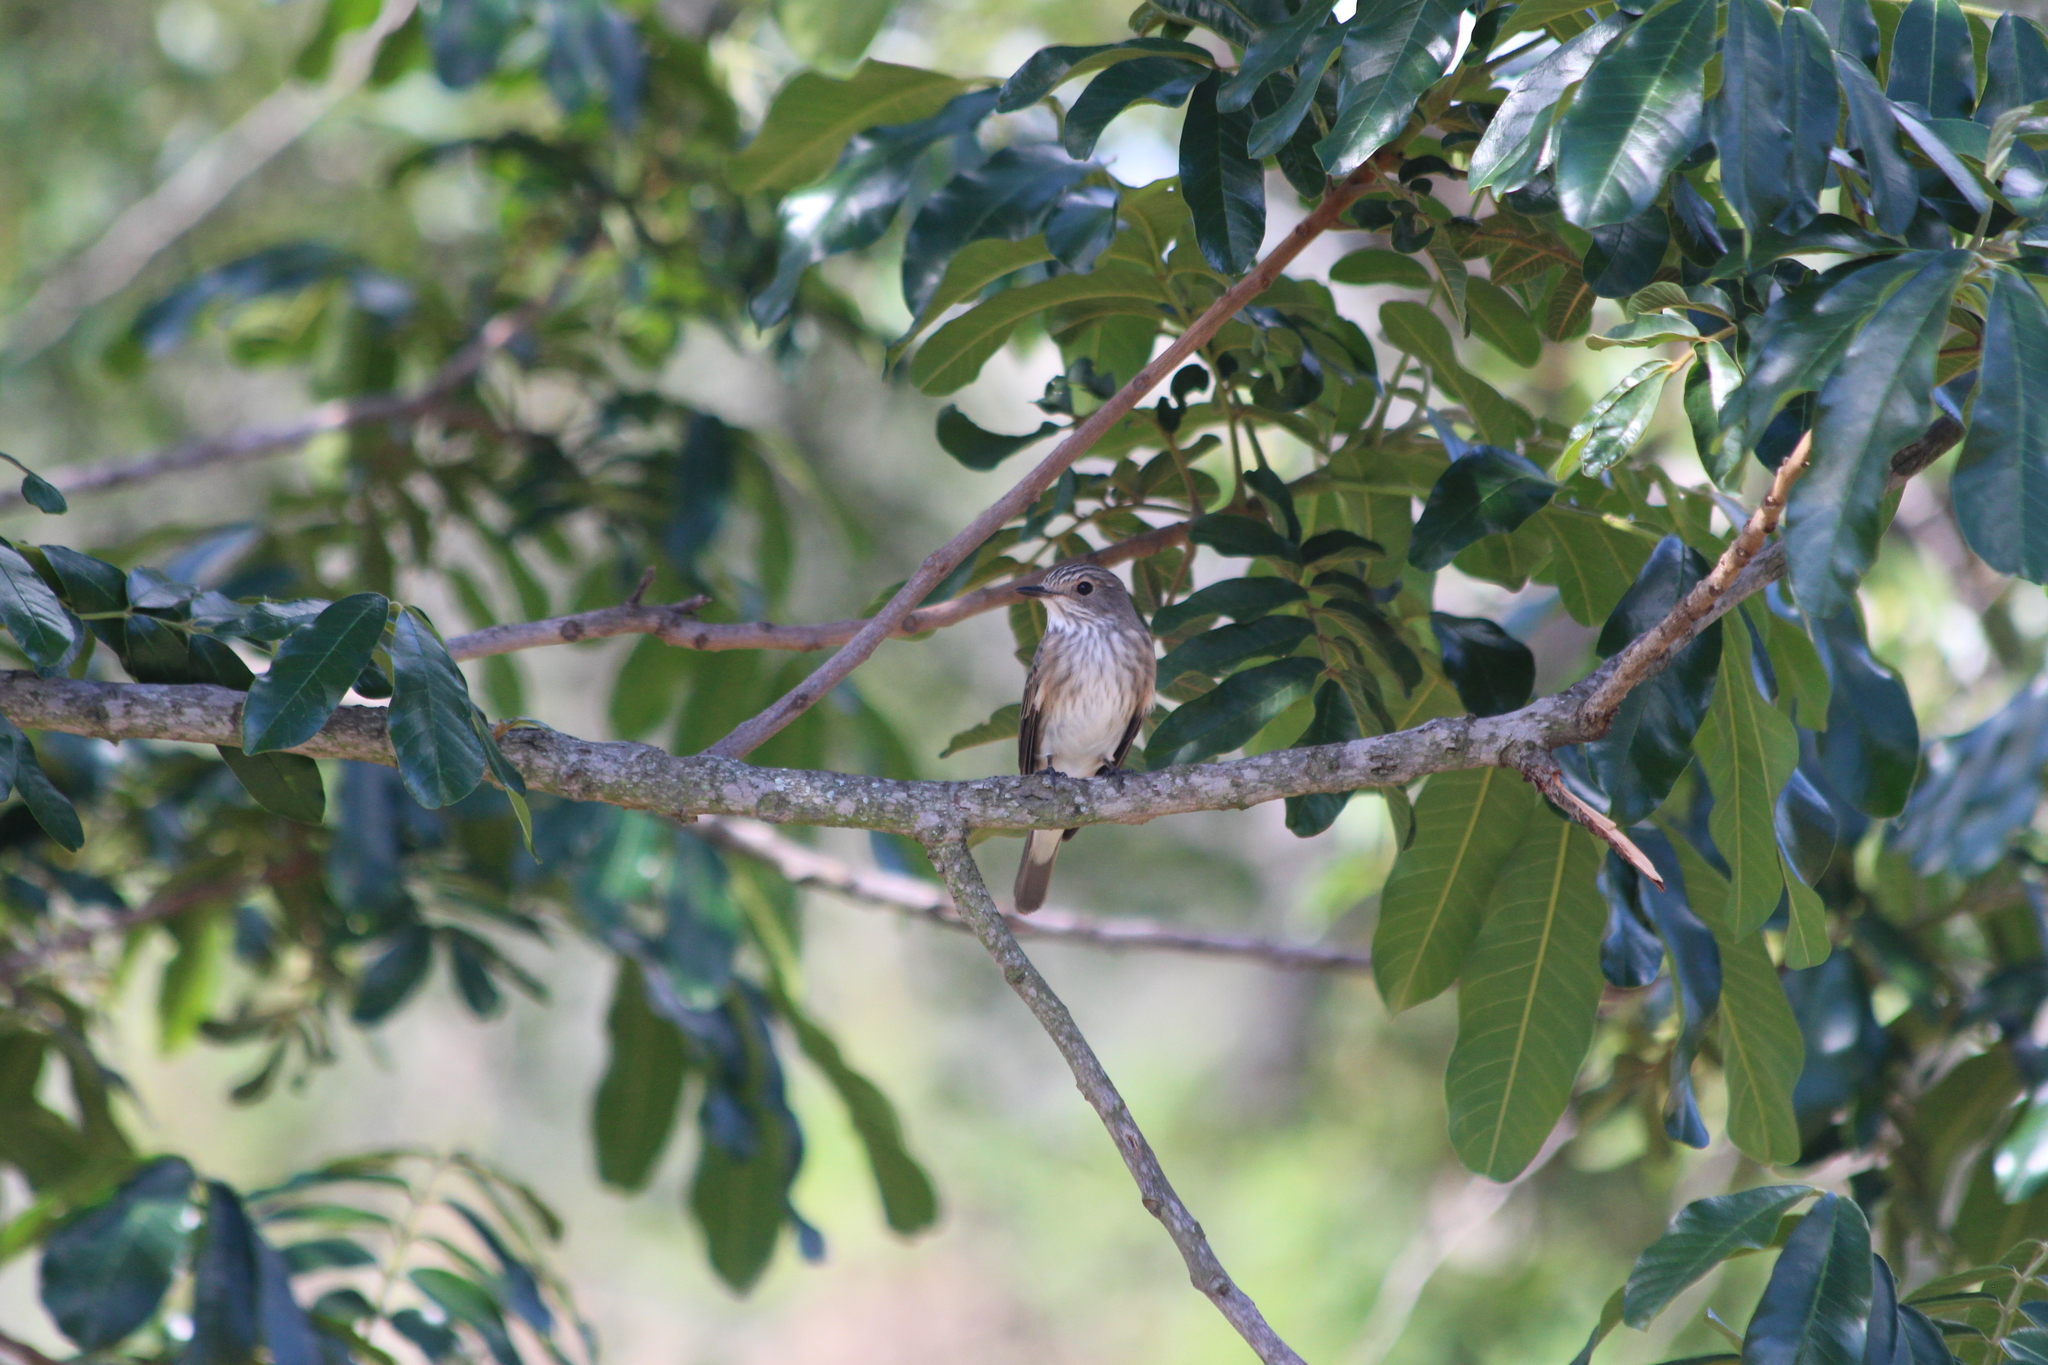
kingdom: Animalia
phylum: Chordata
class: Aves
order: Passeriformes
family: Muscicapidae
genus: Muscicapa
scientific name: Muscicapa striata
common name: Spotted flycatcher
